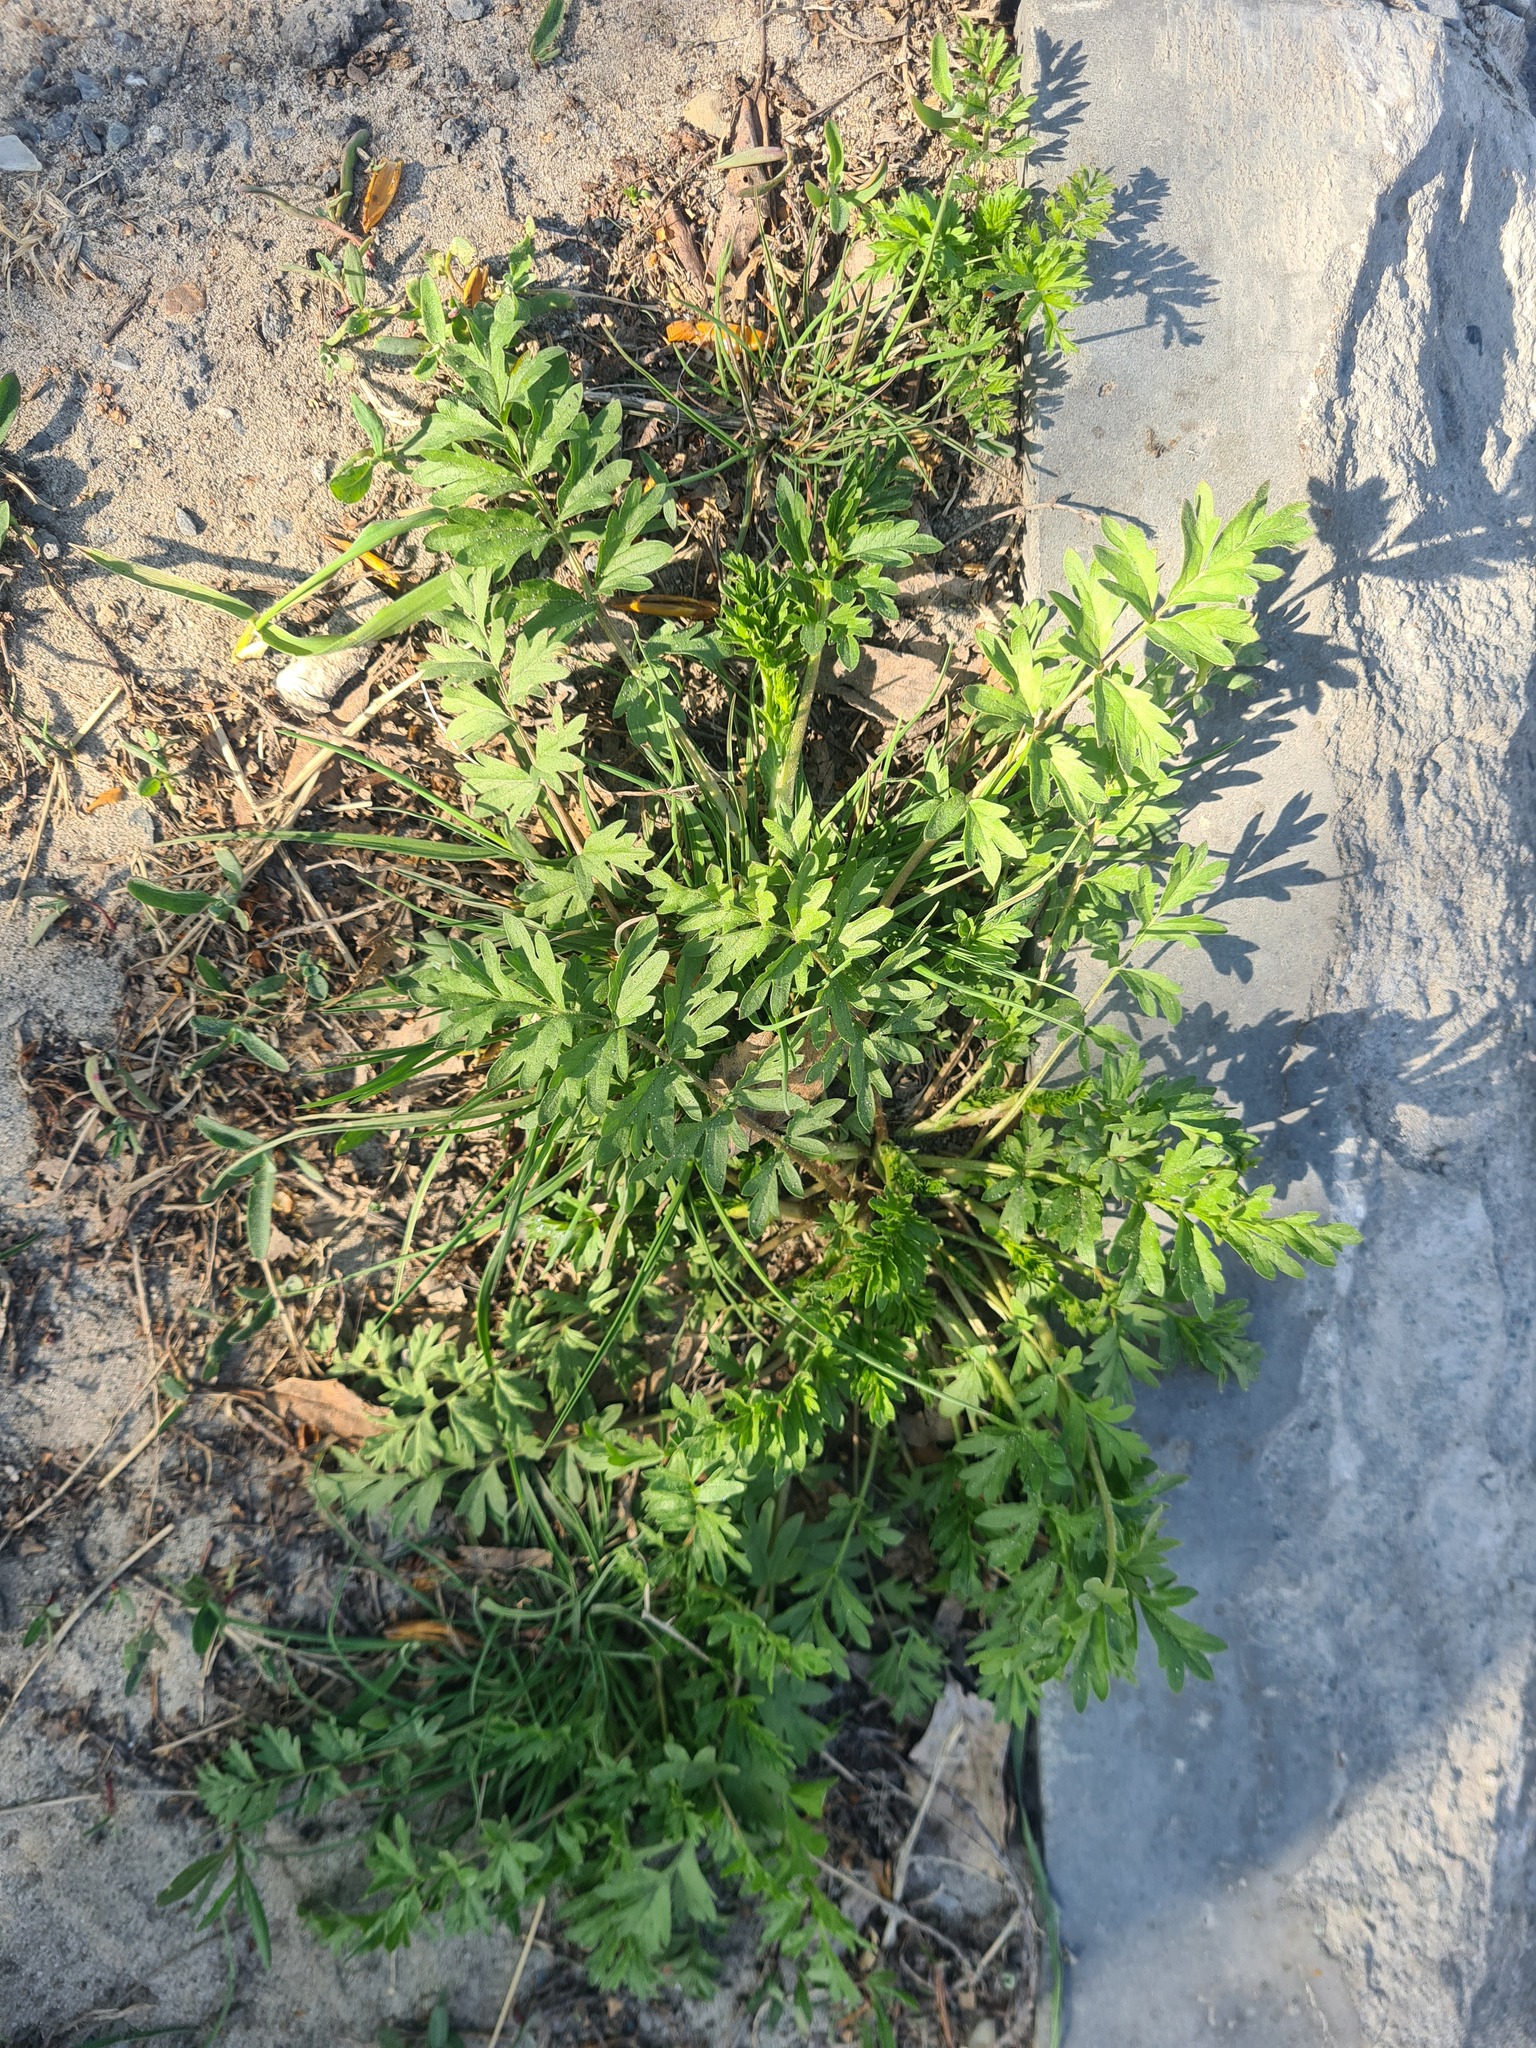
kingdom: Plantae
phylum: Tracheophyta
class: Magnoliopsida
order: Rosales
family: Rosaceae
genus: Potentilla
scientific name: Potentilla supina
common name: Prostrate cinquefoil
